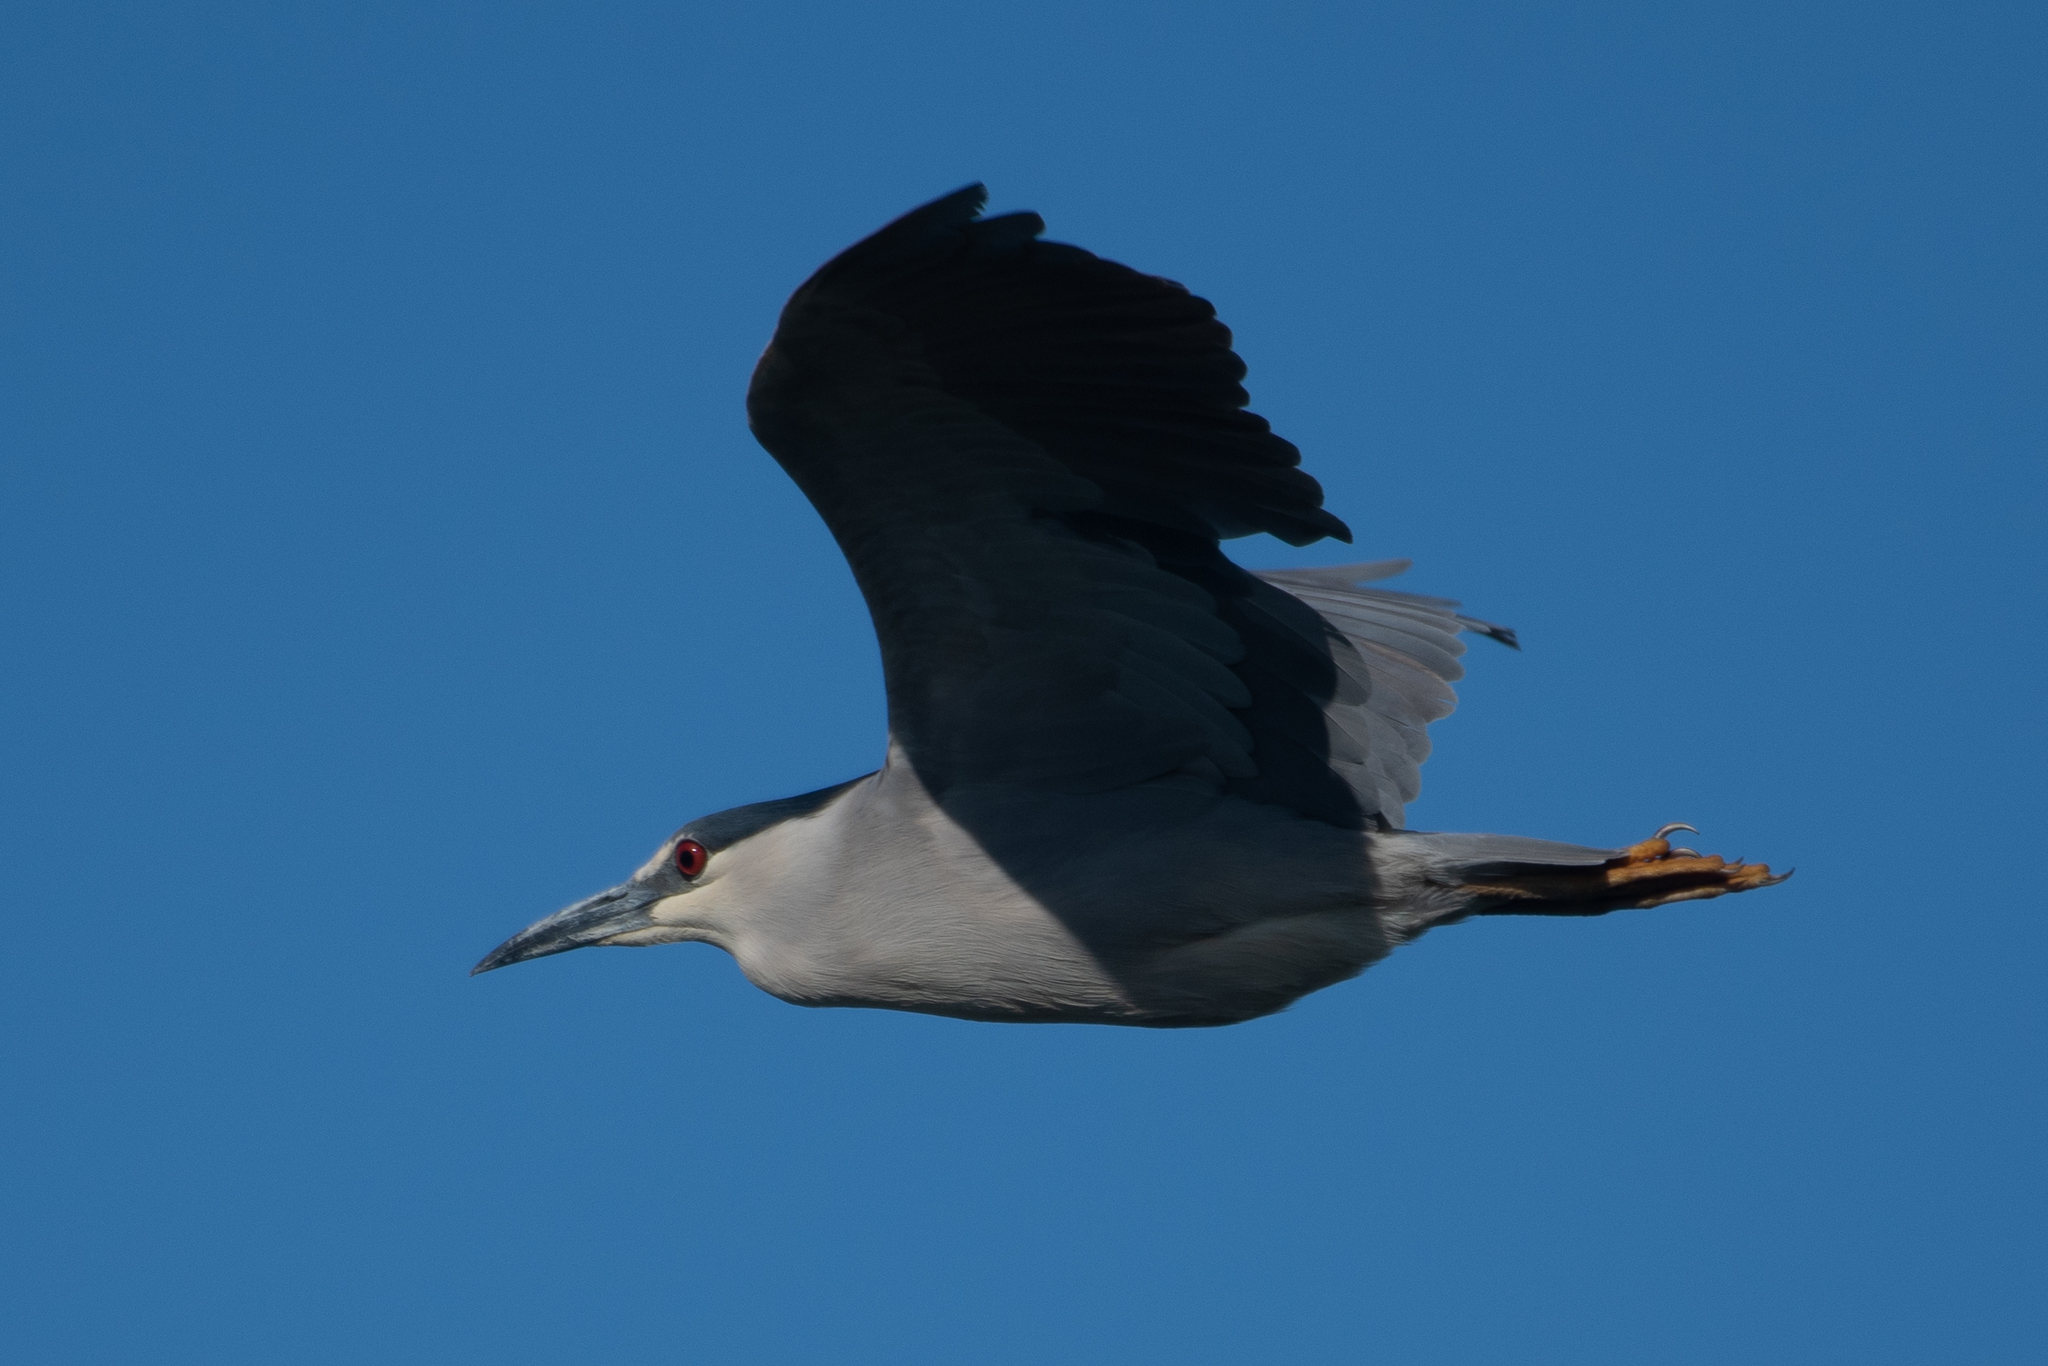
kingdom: Animalia
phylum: Chordata
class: Aves
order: Pelecaniformes
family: Ardeidae
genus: Nycticorax
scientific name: Nycticorax nycticorax
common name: Black-crowned night heron
